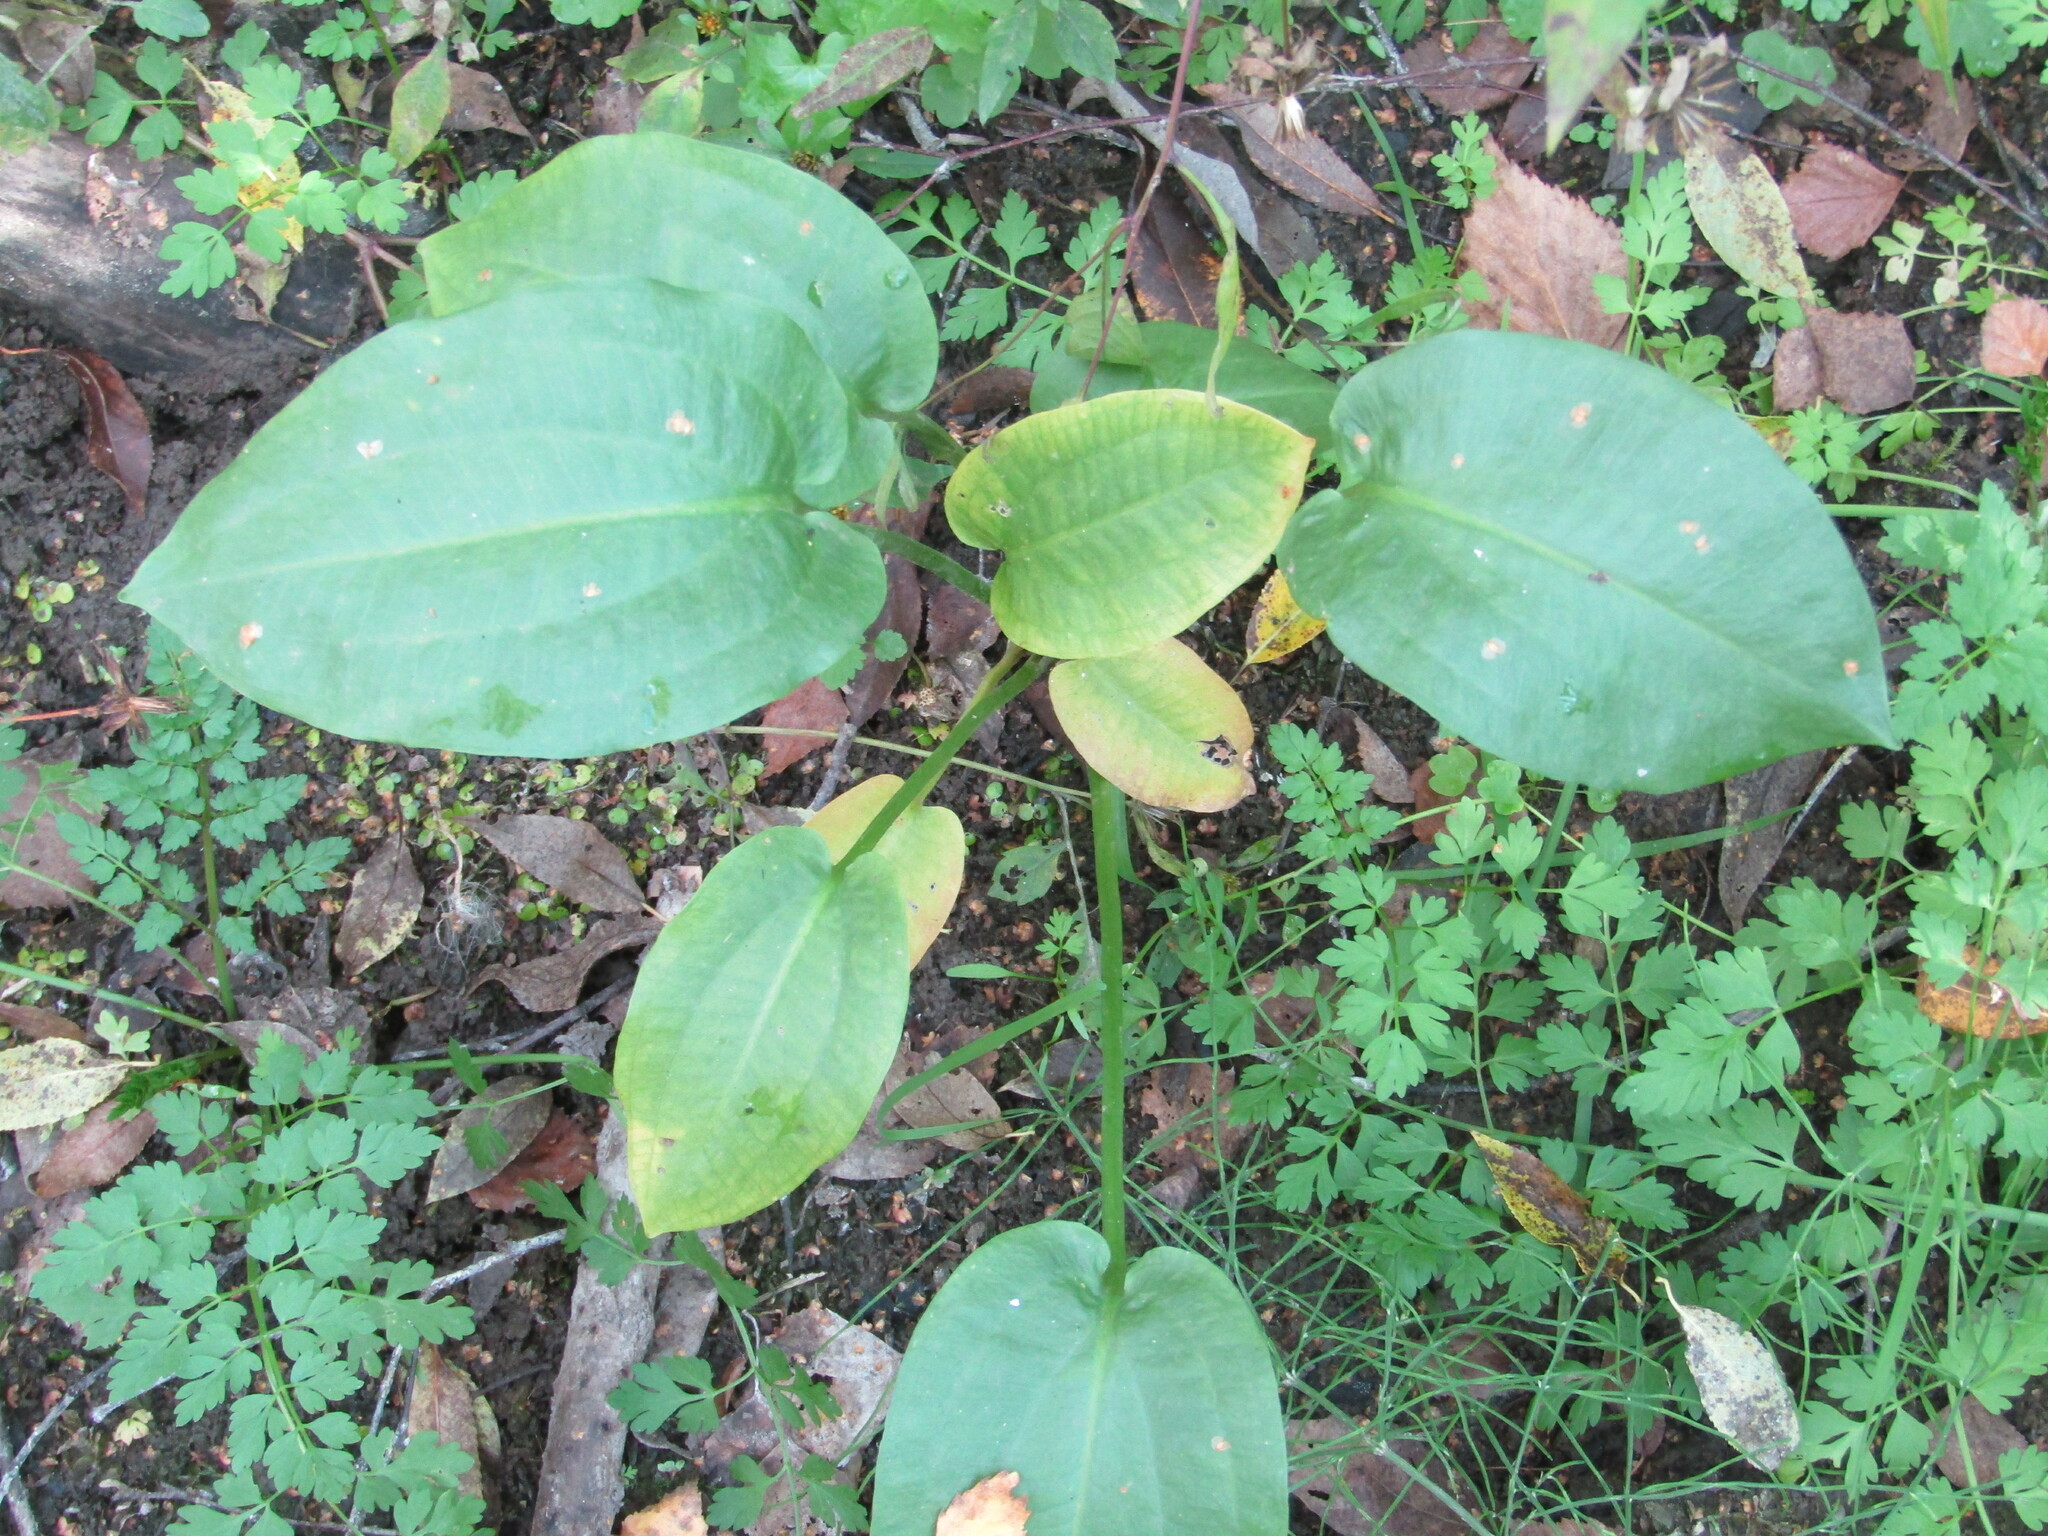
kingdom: Plantae
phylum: Tracheophyta
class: Liliopsida
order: Alismatales
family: Alismataceae
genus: Alisma
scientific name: Alisma plantago-aquatica
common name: Water-plantain
